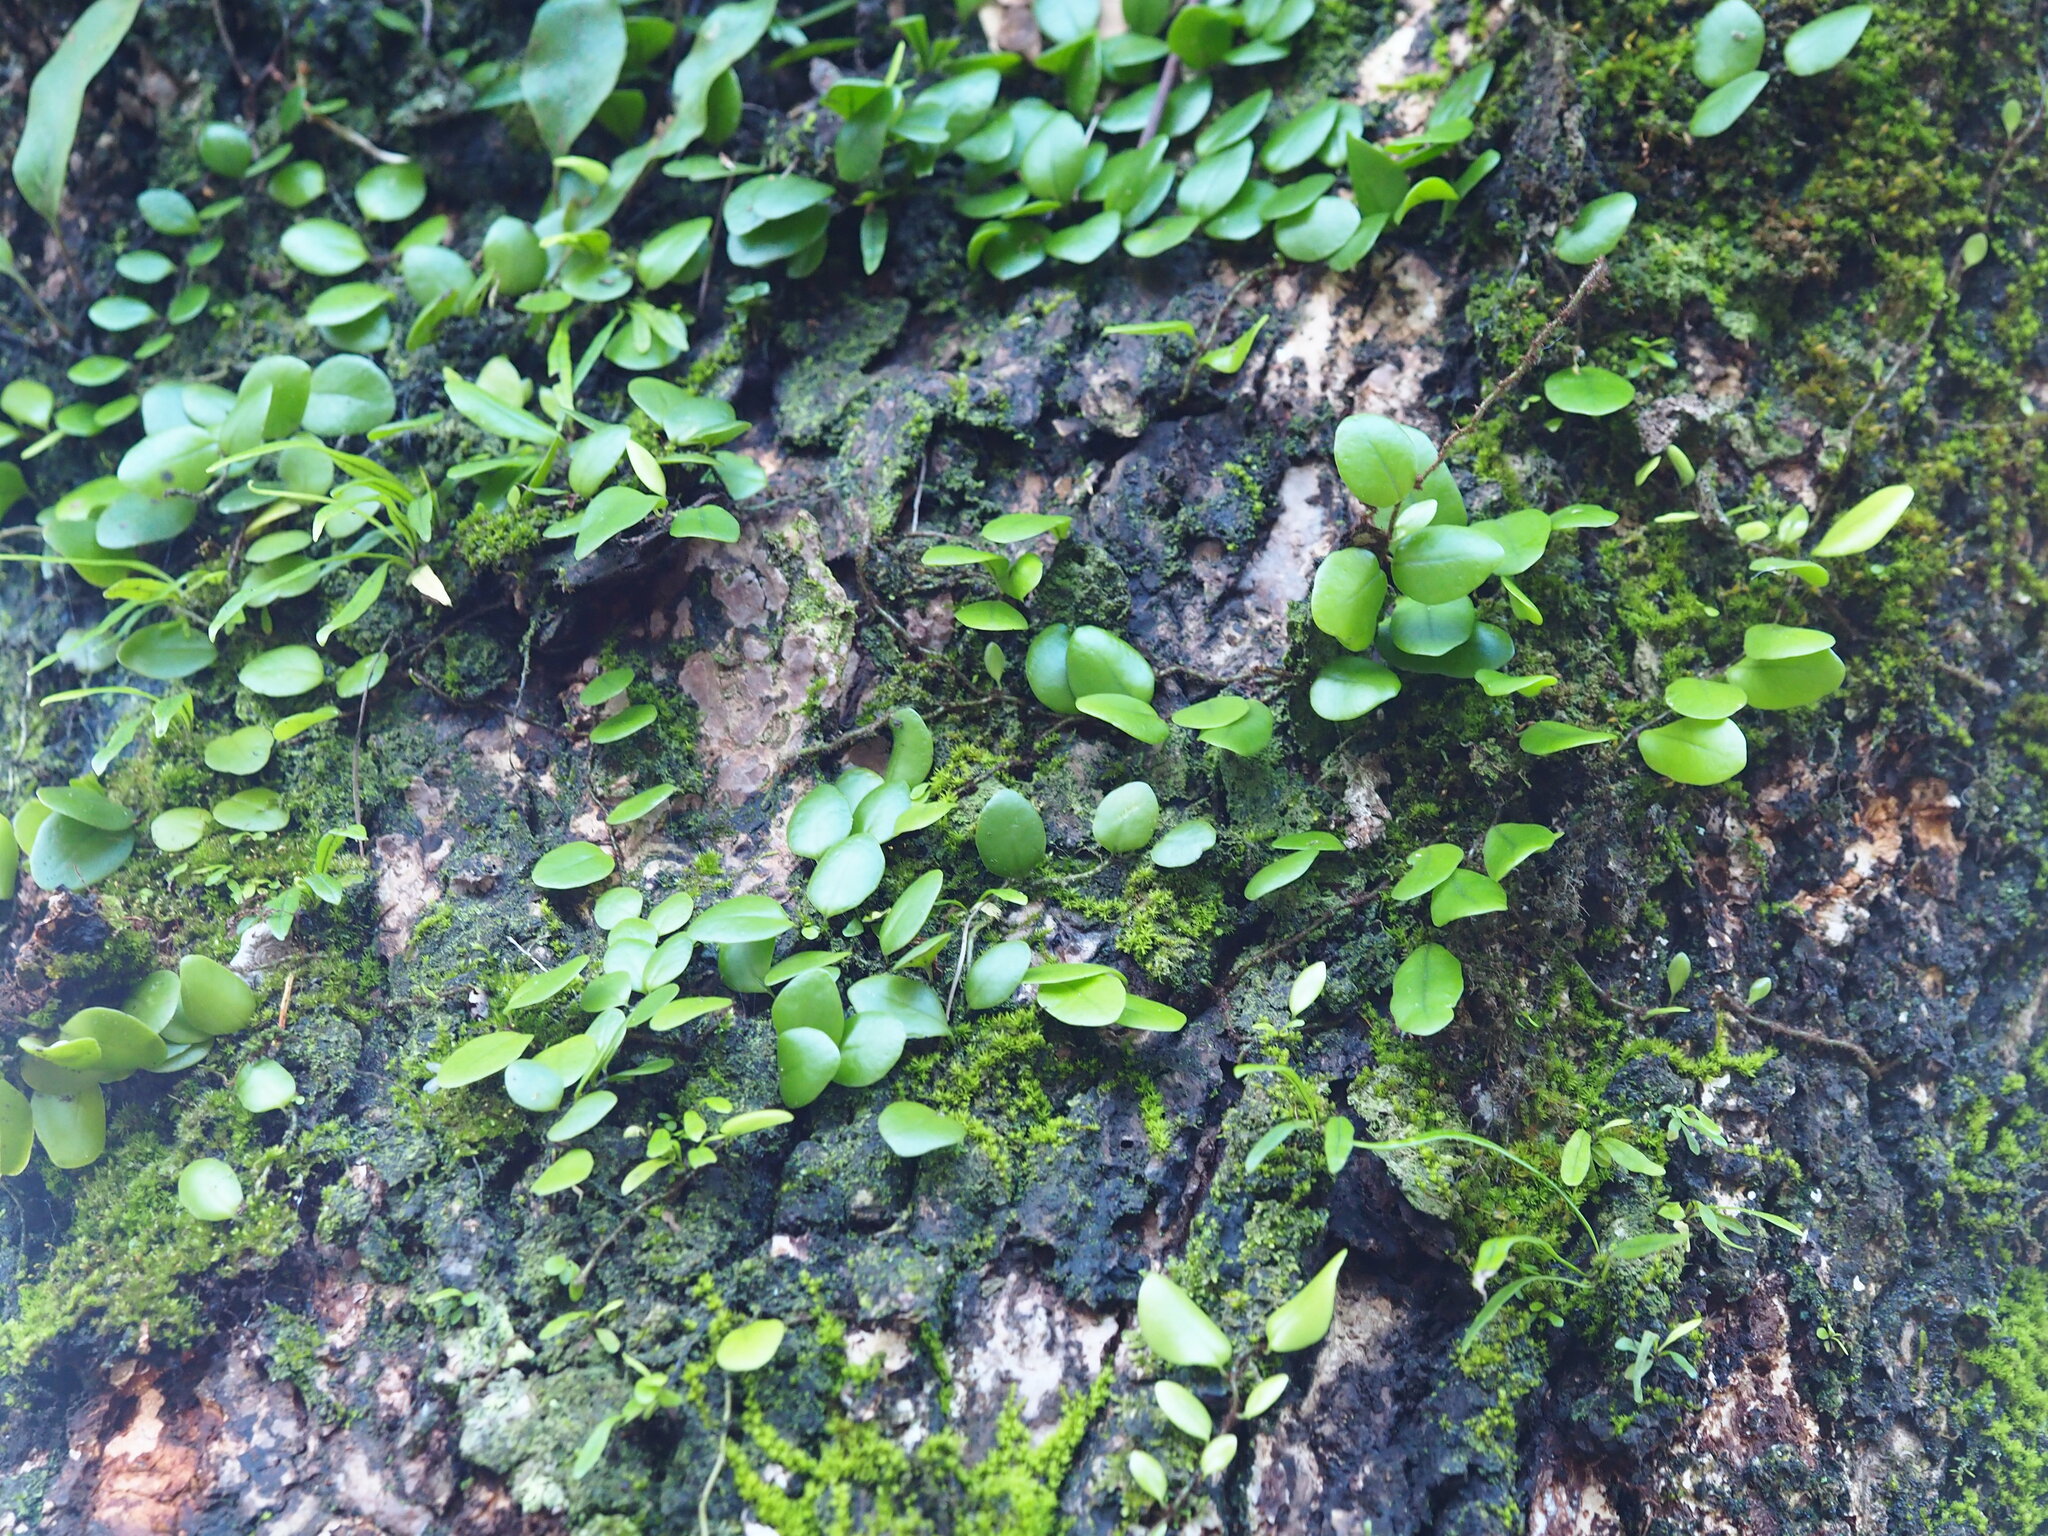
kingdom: Plantae
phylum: Tracheophyta
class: Polypodiopsida
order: Polypodiales
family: Polypodiaceae
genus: Lepisorus
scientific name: Lepisorus microphyllus
